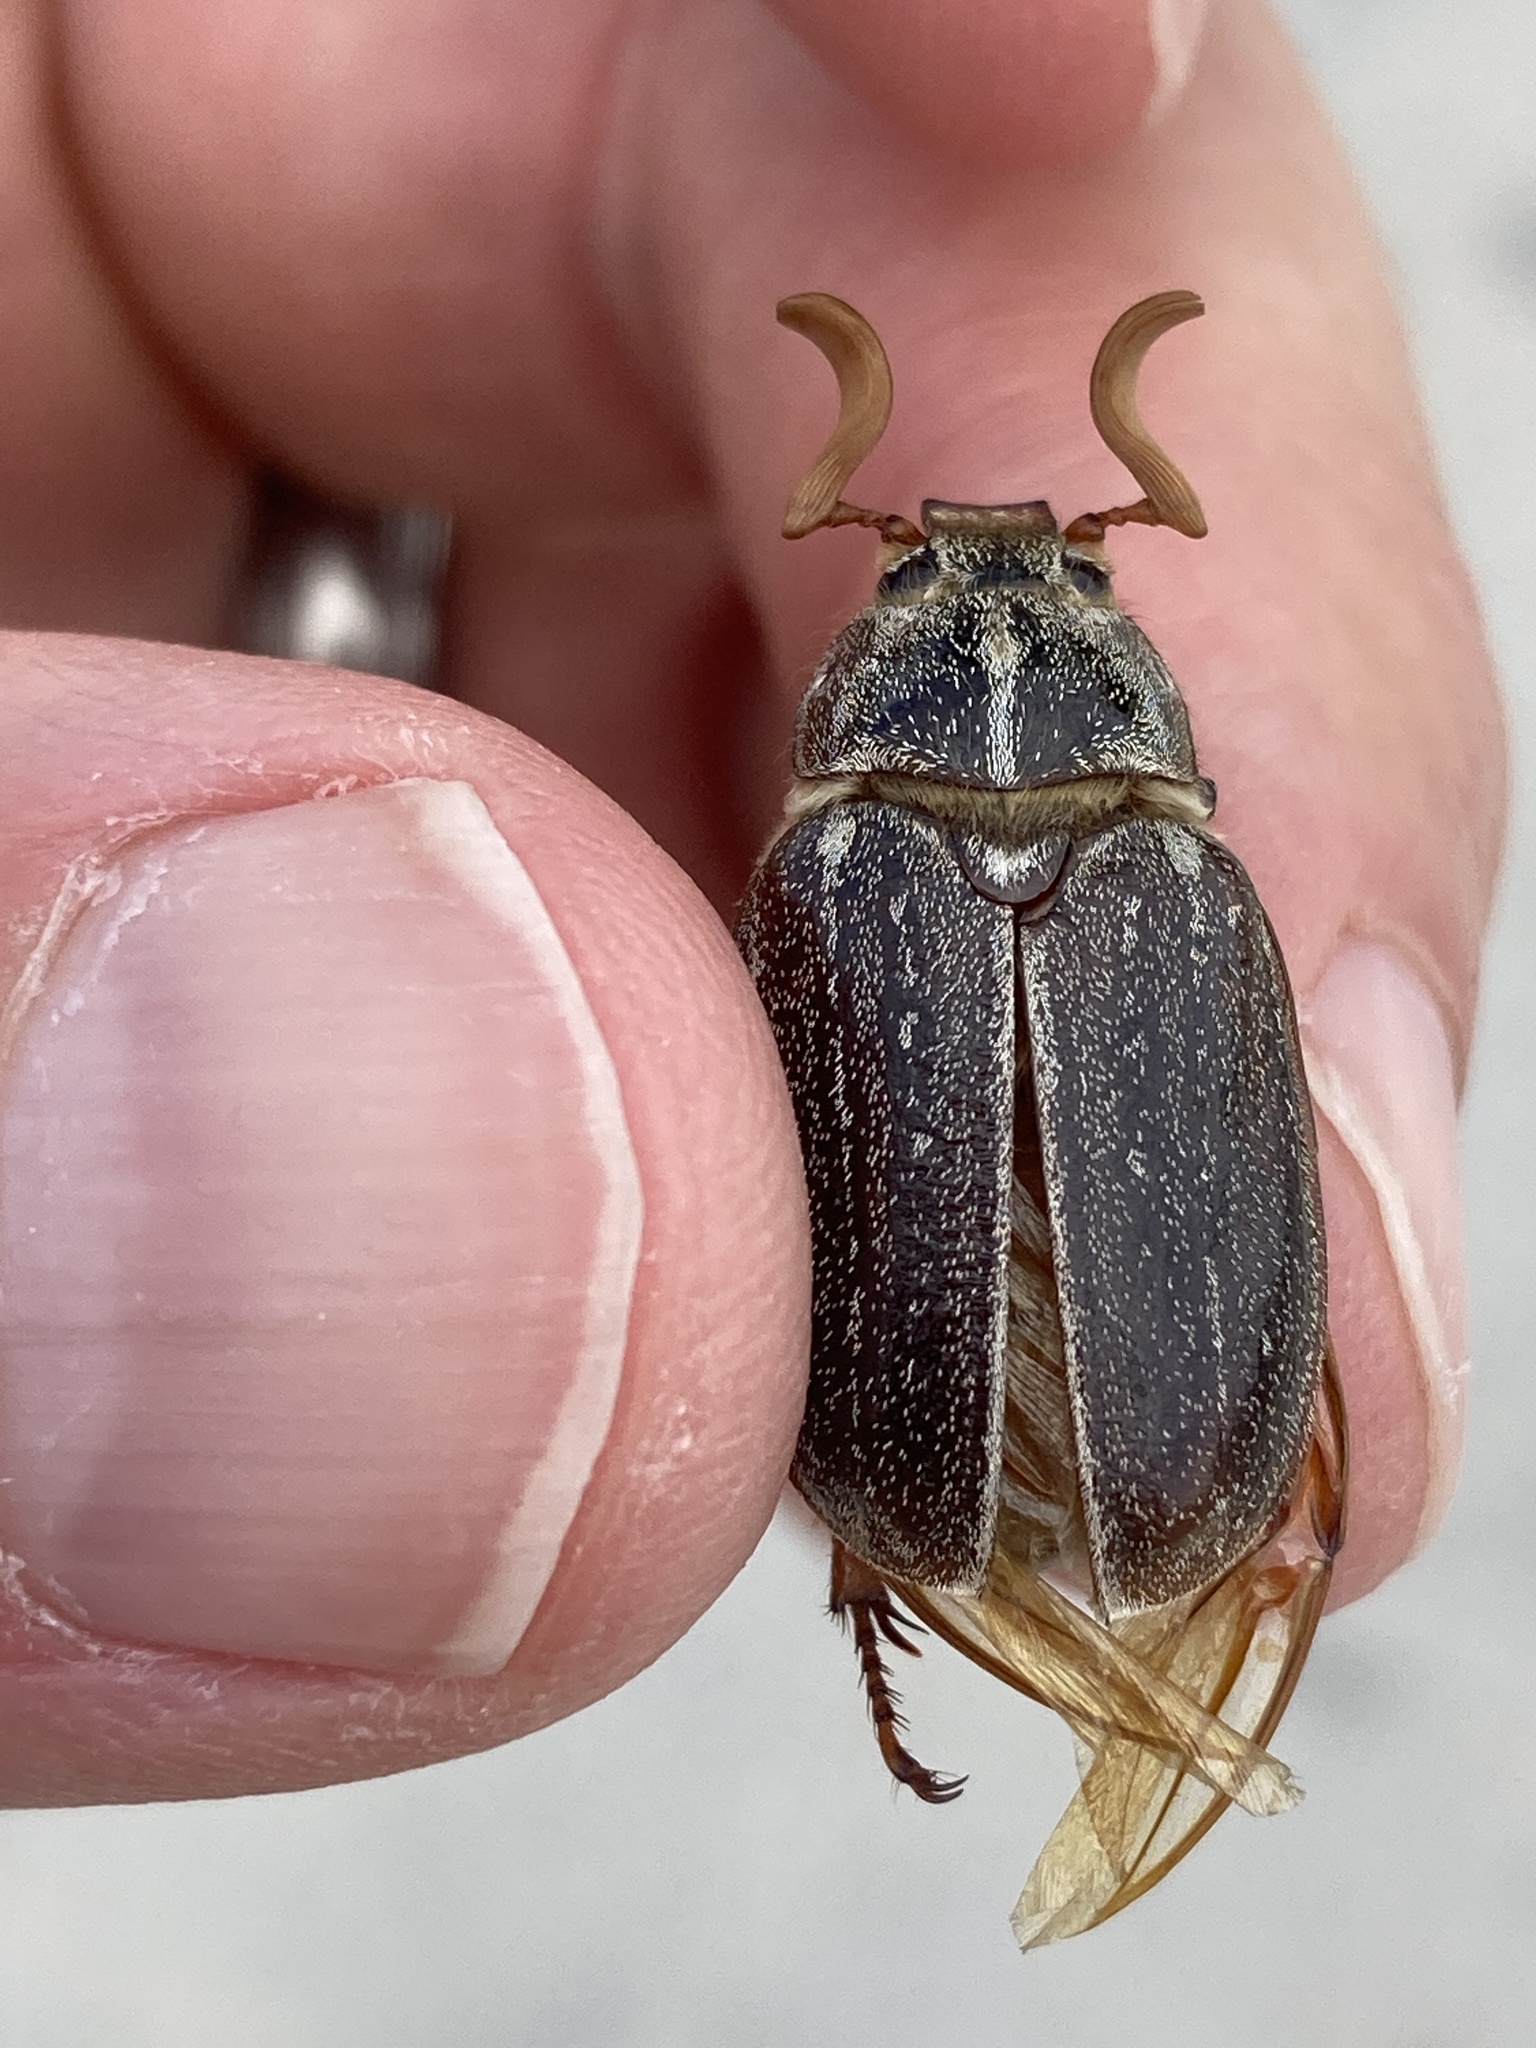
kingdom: Animalia
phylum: Arthropoda
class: Insecta
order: Coleoptera
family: Scarabaeidae
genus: Polyphylla
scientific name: Polyphylla hammondi
